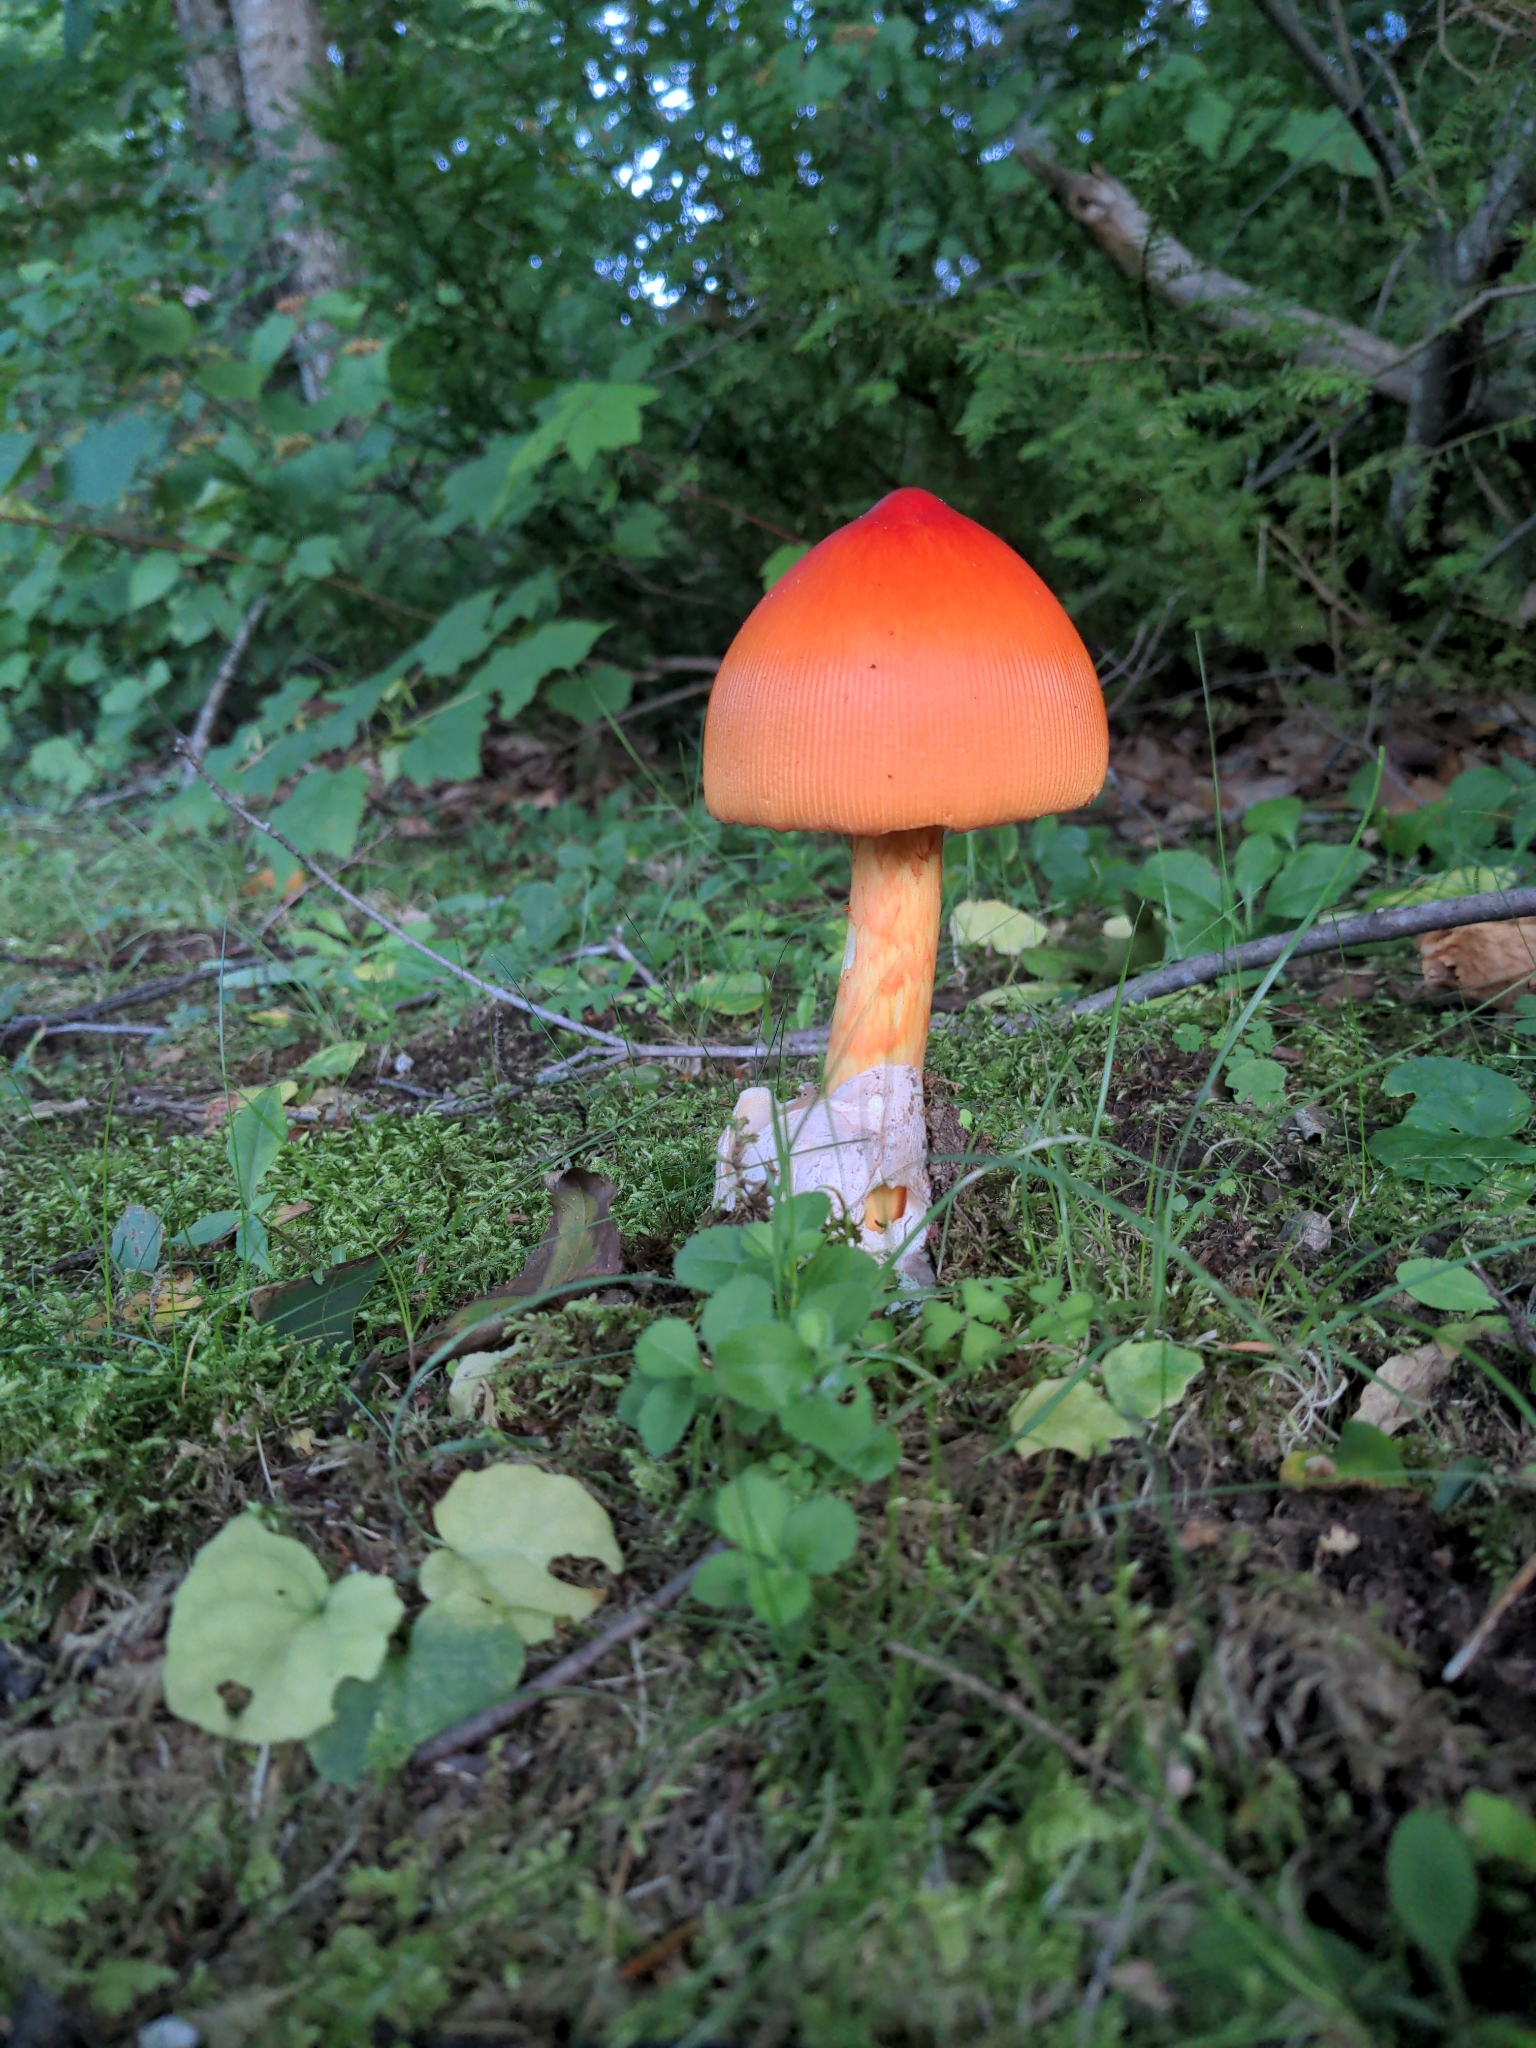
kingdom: Fungi
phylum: Basidiomycota
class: Agaricomycetes
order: Agaricales
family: Amanitaceae
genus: Amanita
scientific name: Amanita jacksonii
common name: Jackson's slender caesar
